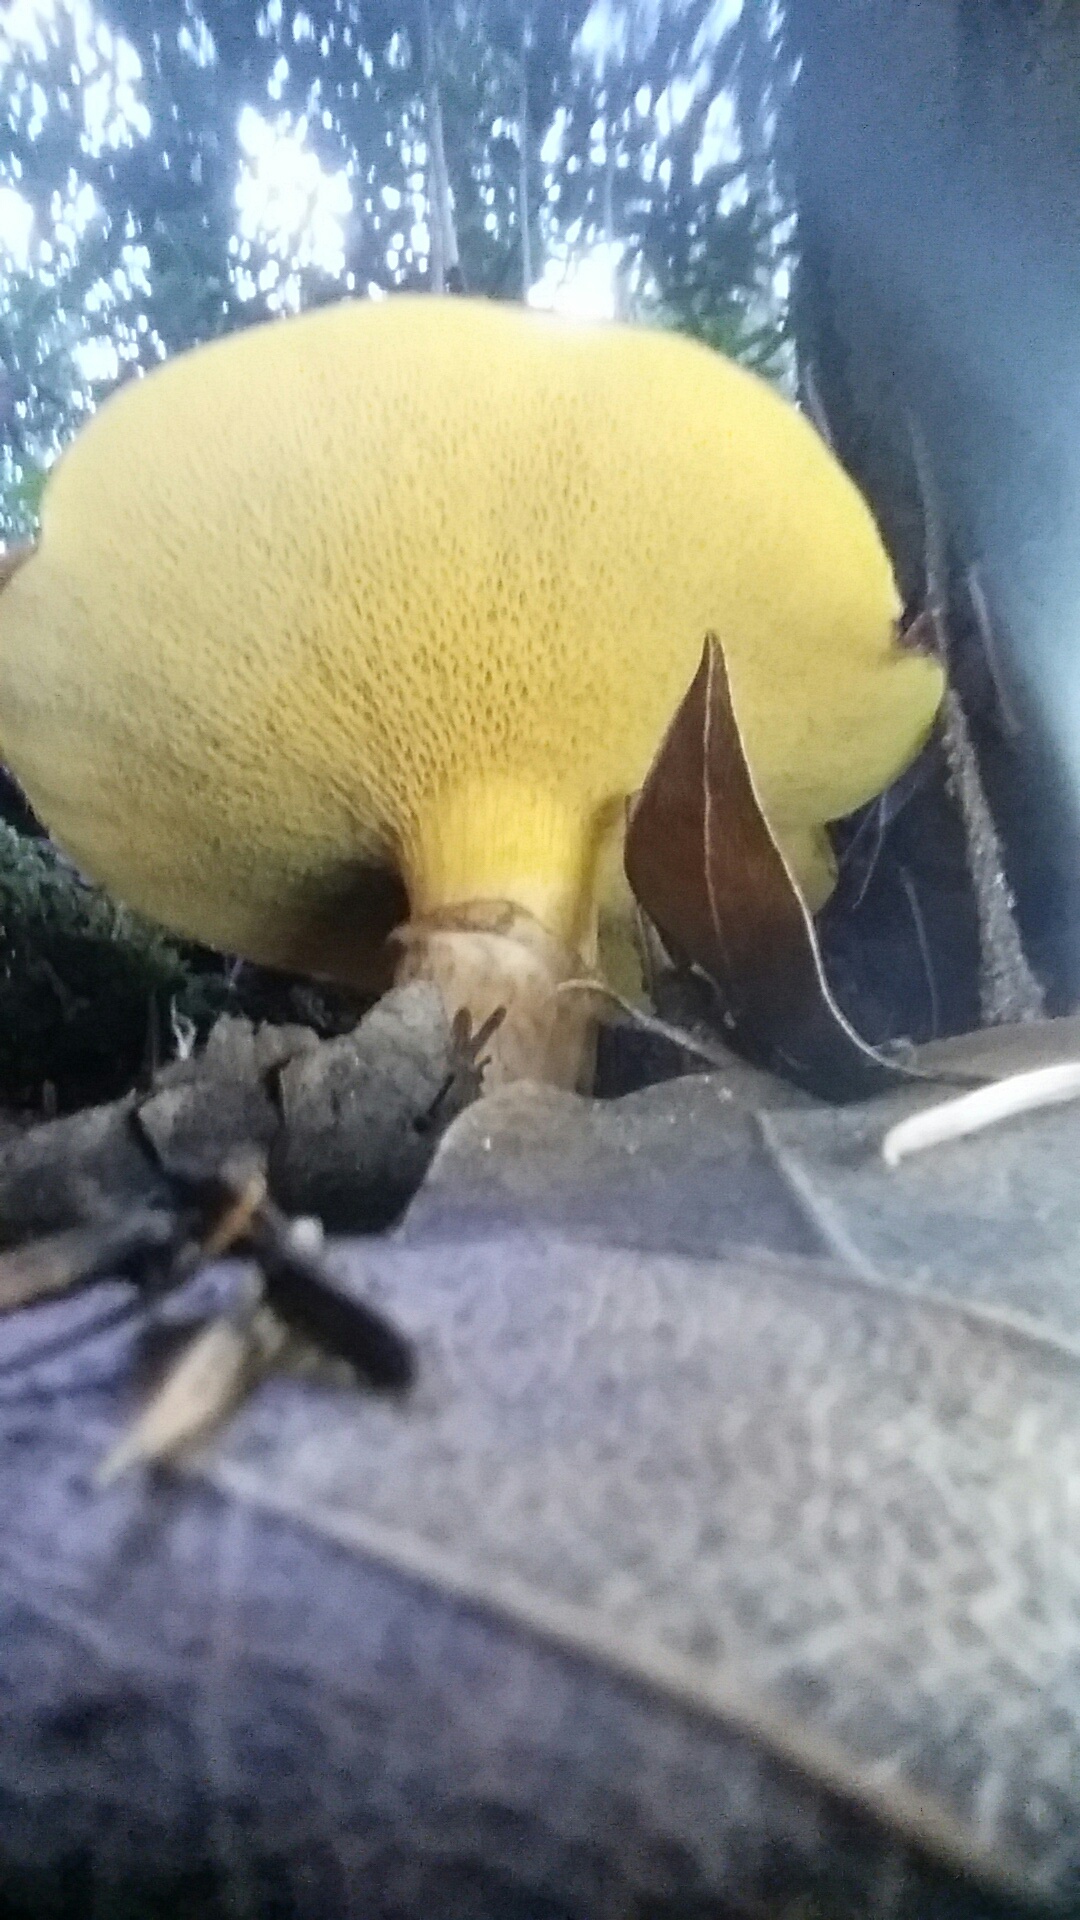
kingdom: Fungi
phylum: Basidiomycota
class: Agaricomycetes
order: Boletales
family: Suillaceae
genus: Suillus
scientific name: Suillus caerulescens
